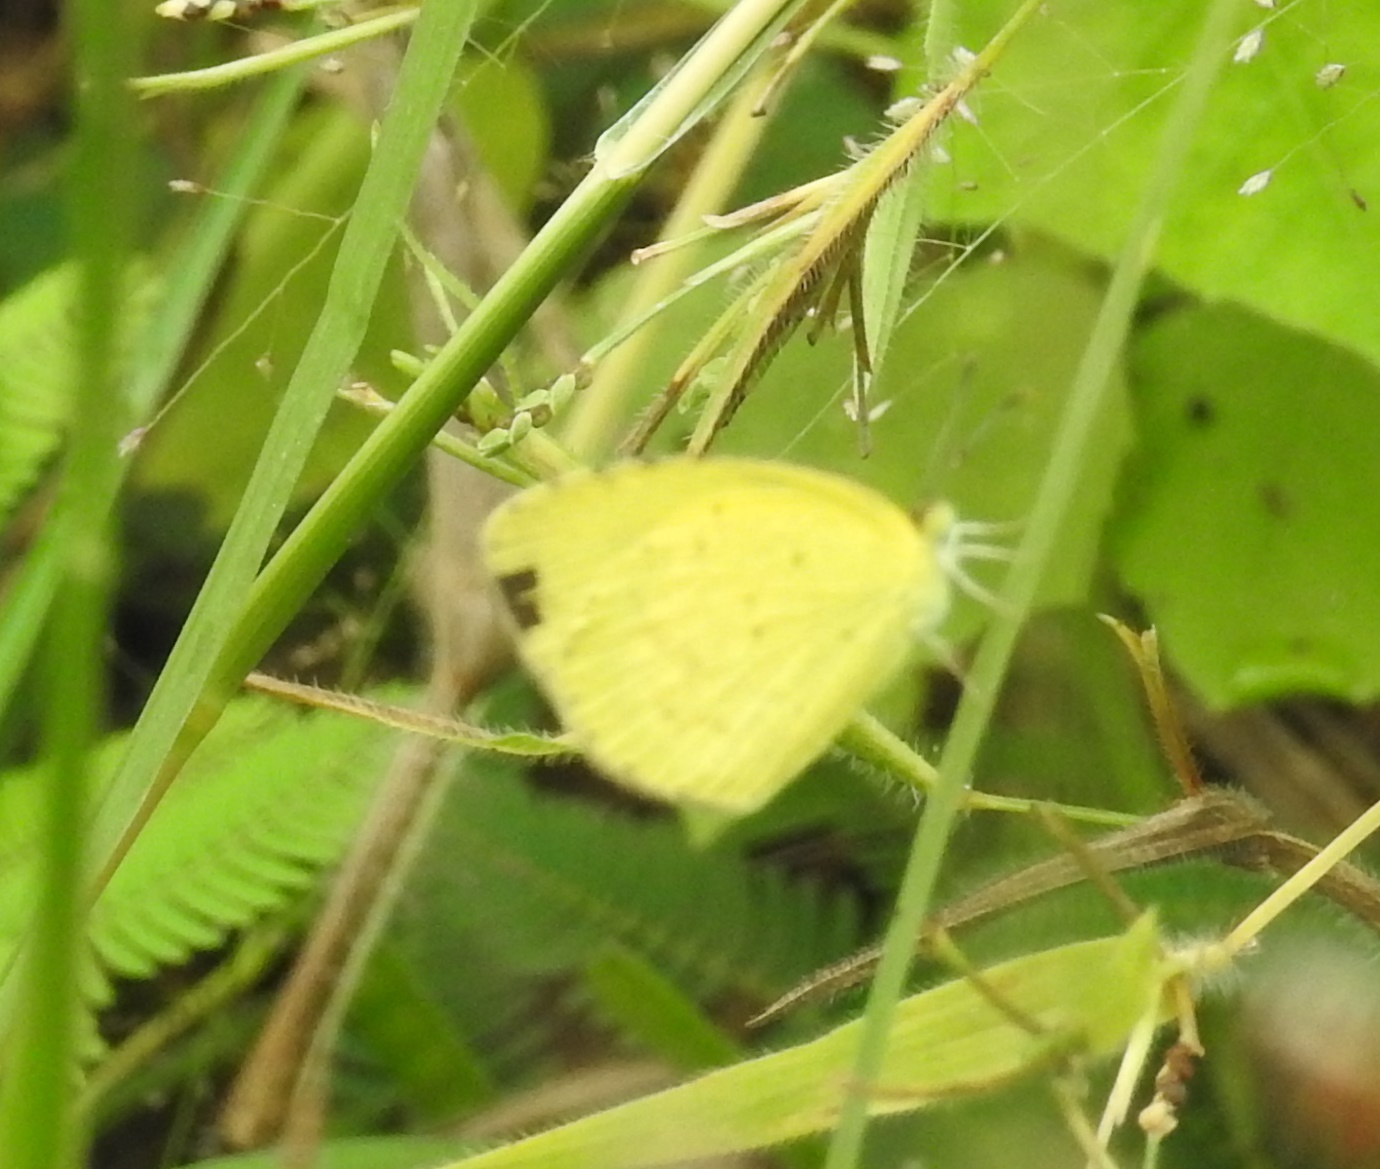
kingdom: Animalia
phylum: Arthropoda
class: Insecta
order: Lepidoptera
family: Pieridae
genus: Eurema
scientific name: Eurema brigitta
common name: Small grass yellow
